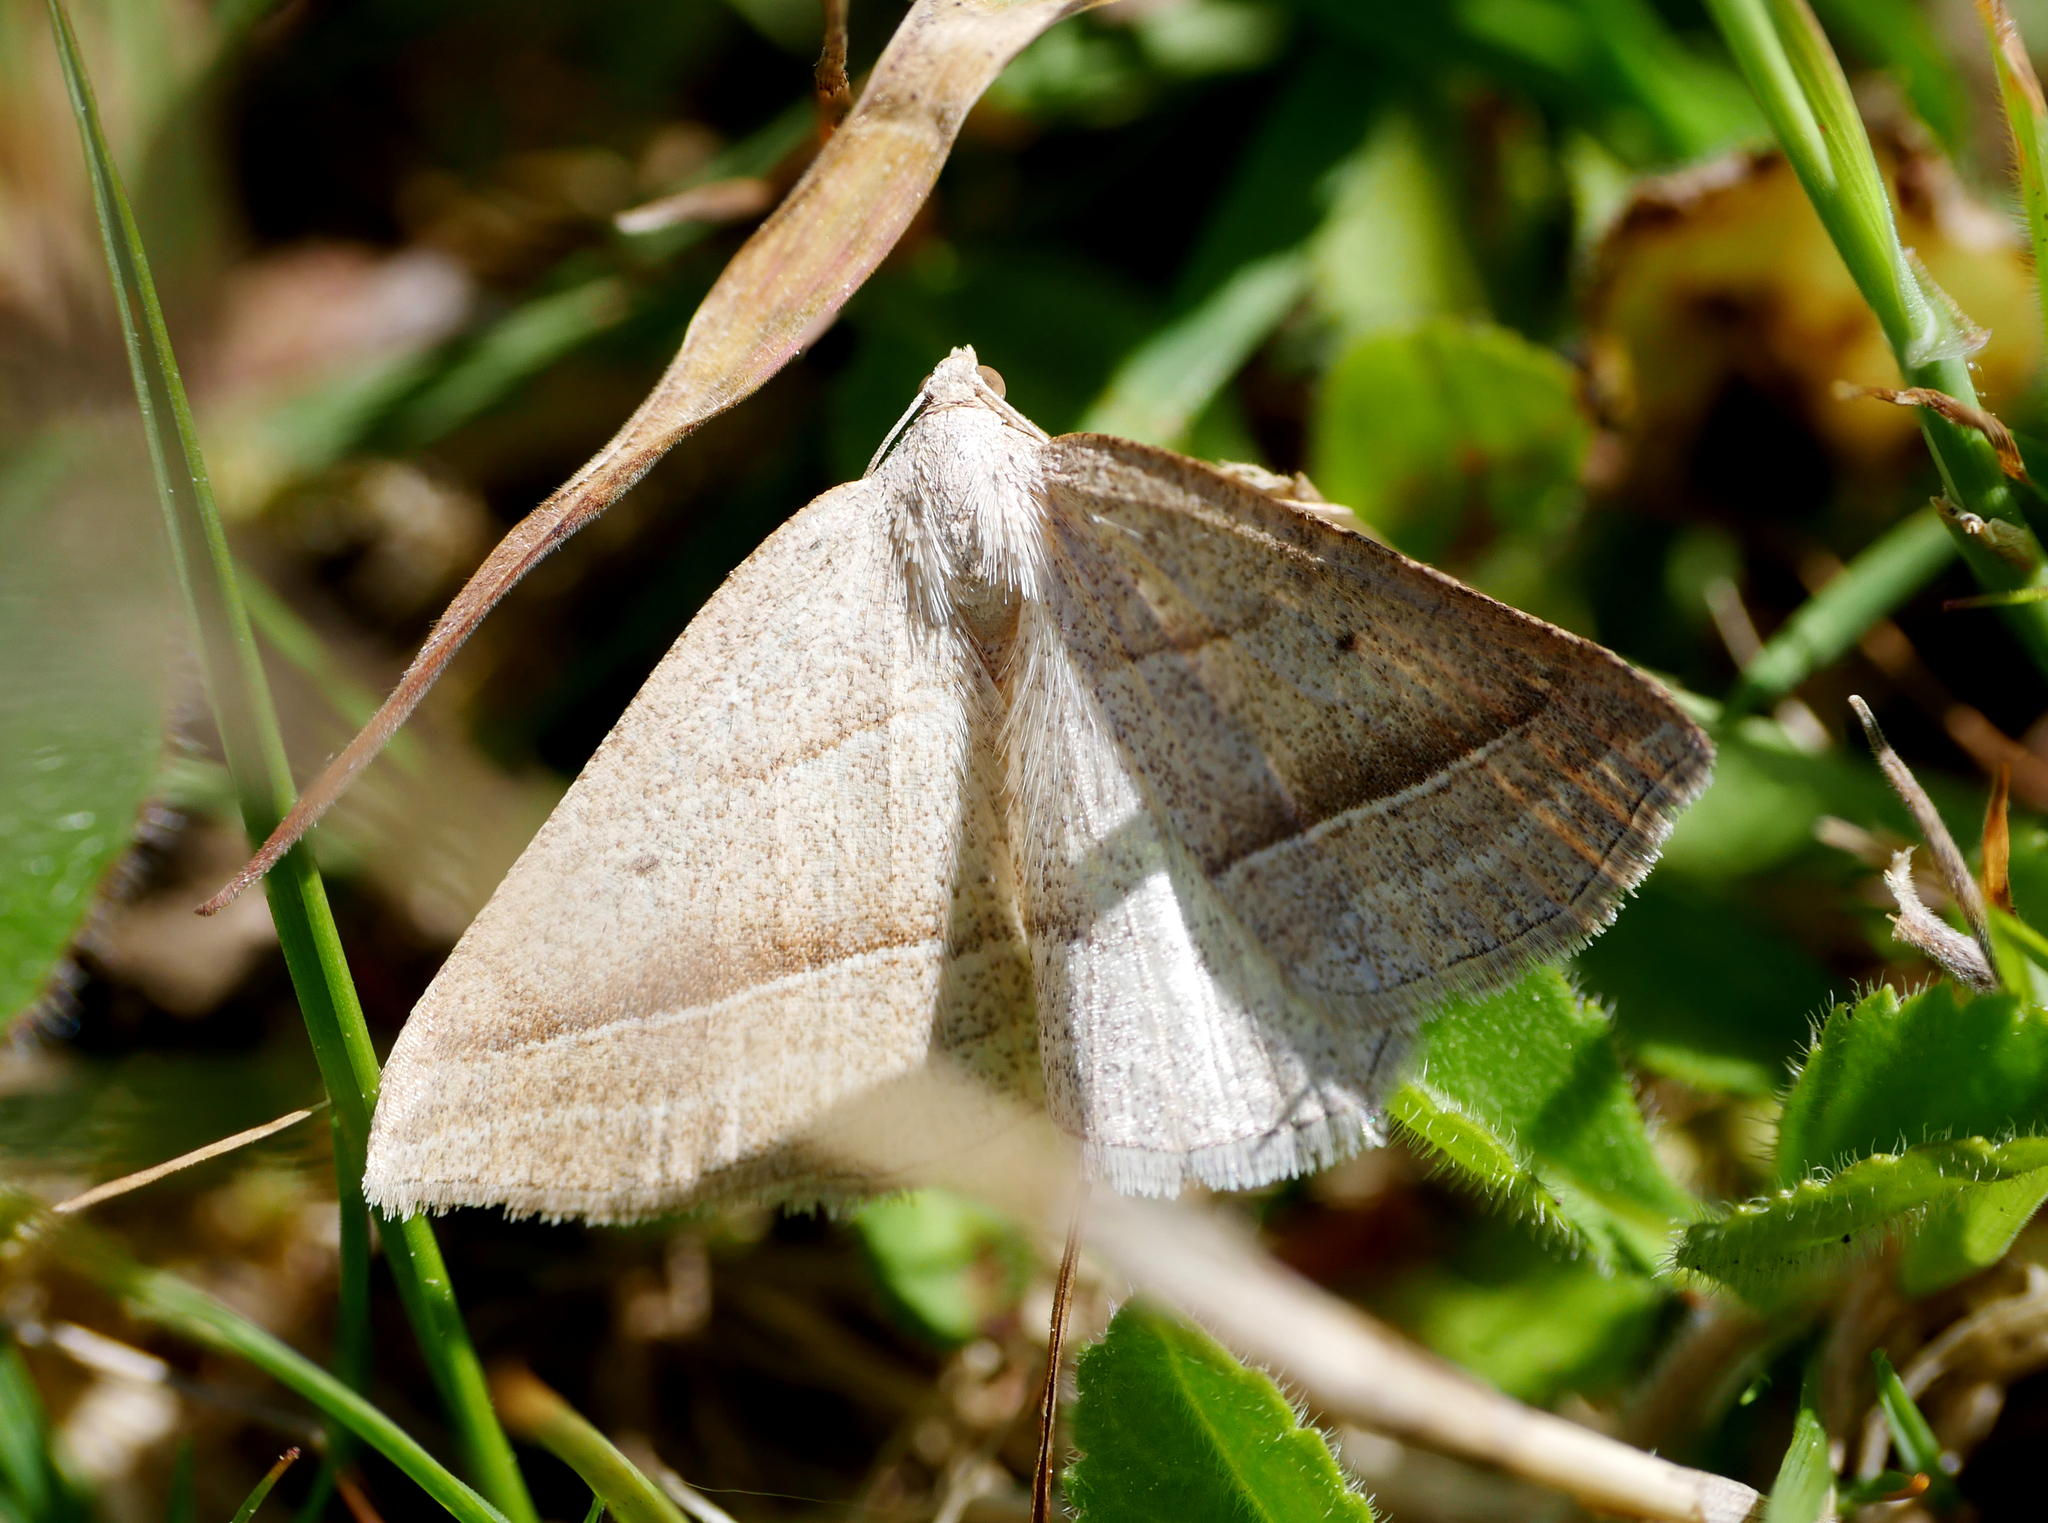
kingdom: Animalia
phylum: Arthropoda
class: Insecta
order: Lepidoptera
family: Pterophoridae
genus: Pterophorus
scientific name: Pterophorus Petrophora chlorosata
